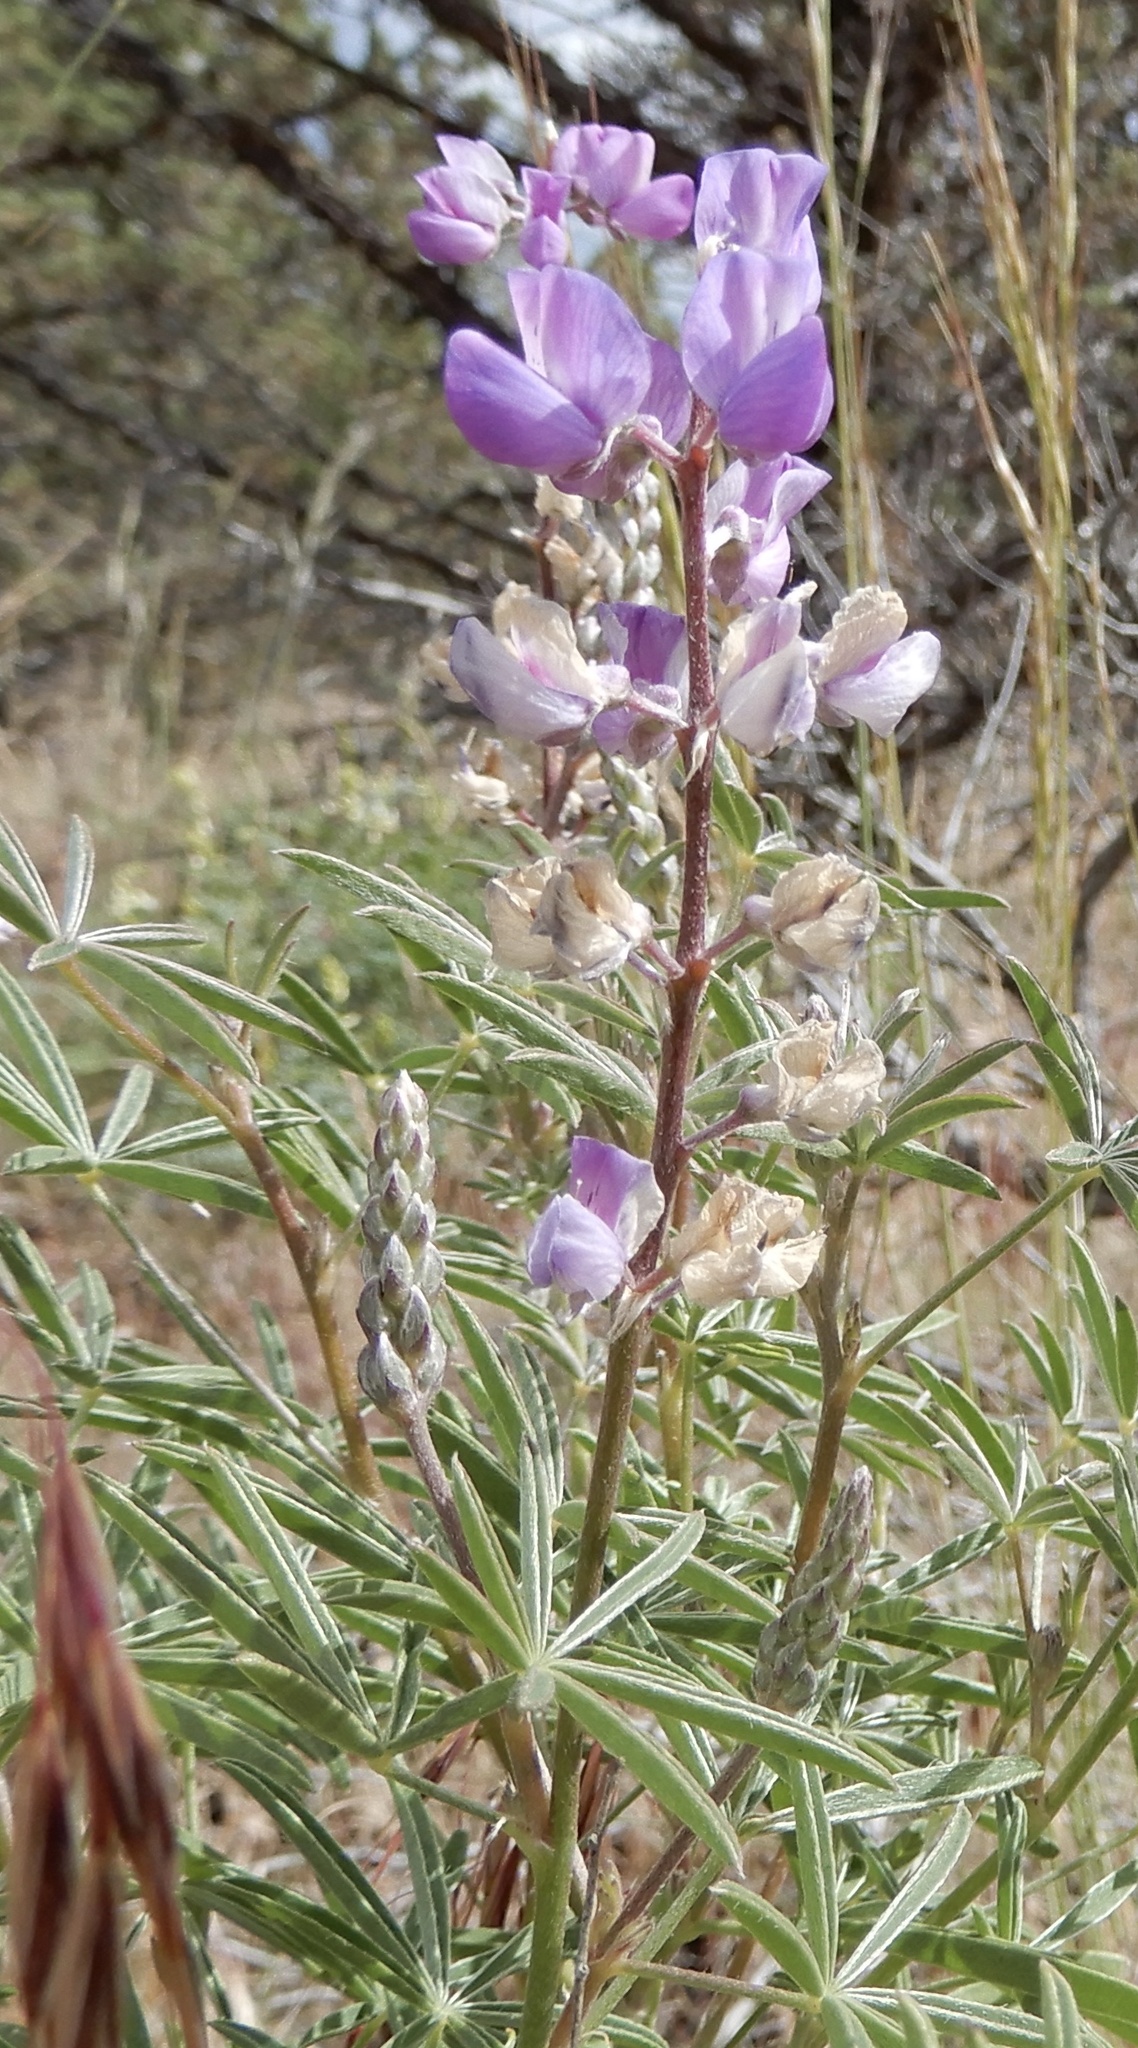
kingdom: Plantae
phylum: Tracheophyta
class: Magnoliopsida
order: Fabales
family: Fabaceae
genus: Lupinus
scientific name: Lupinus argenteus
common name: Silvery lupine
